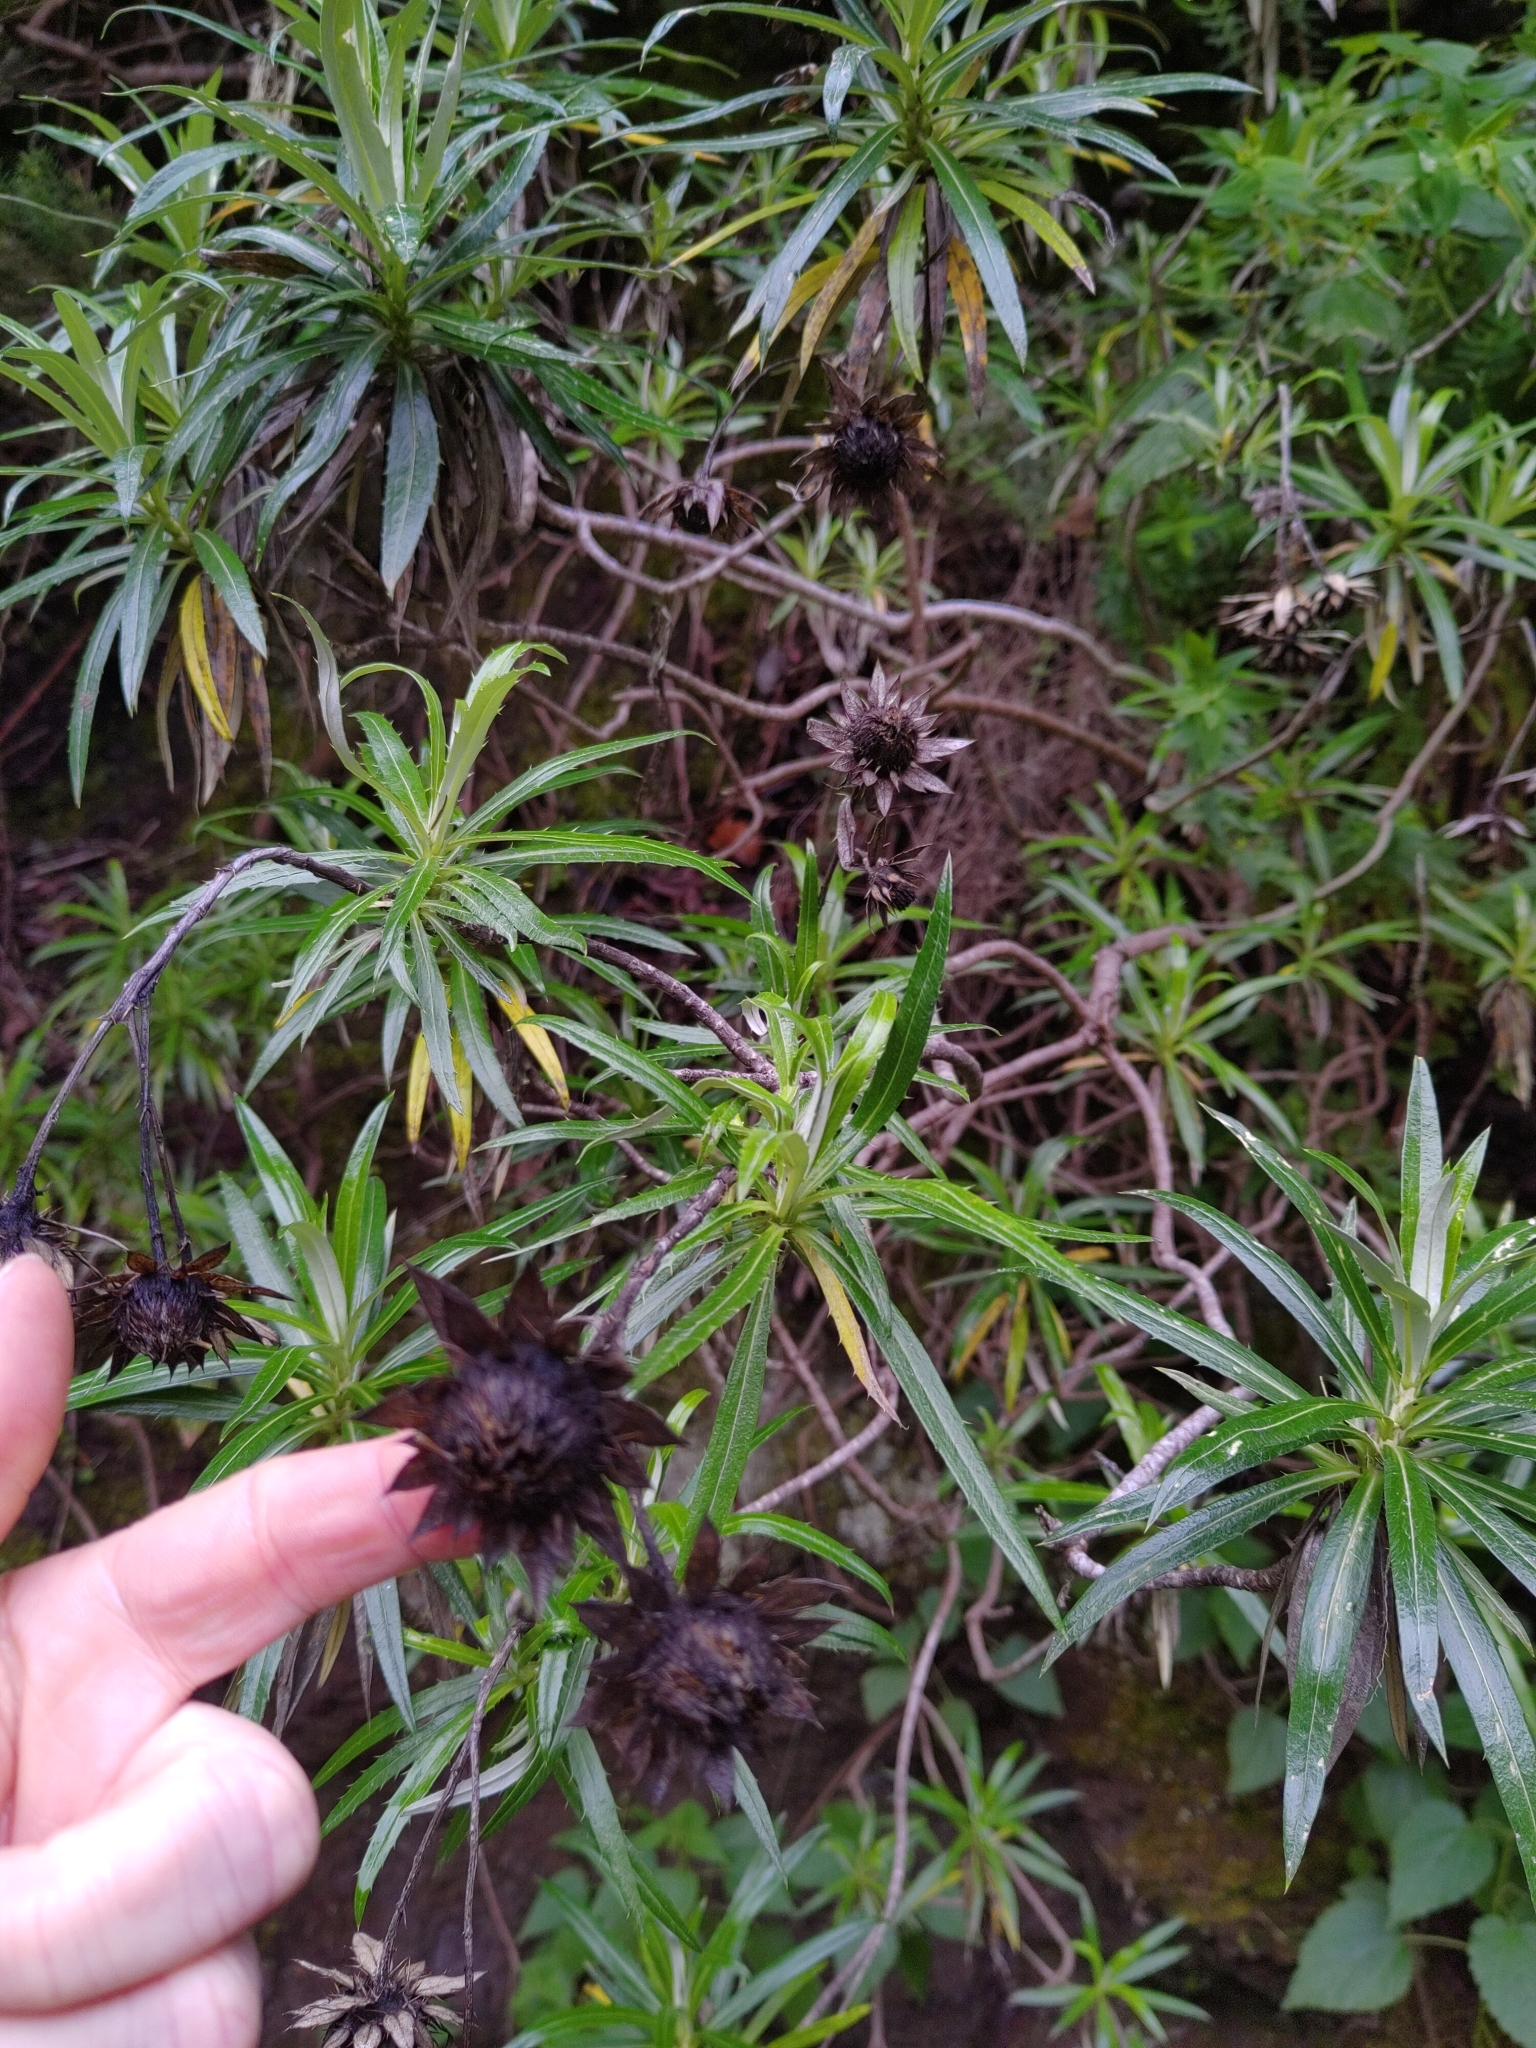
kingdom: Plantae
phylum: Tracheophyta
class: Magnoliopsida
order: Asterales
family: Asteraceae
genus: Carlina
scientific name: Carlina salicifolia
